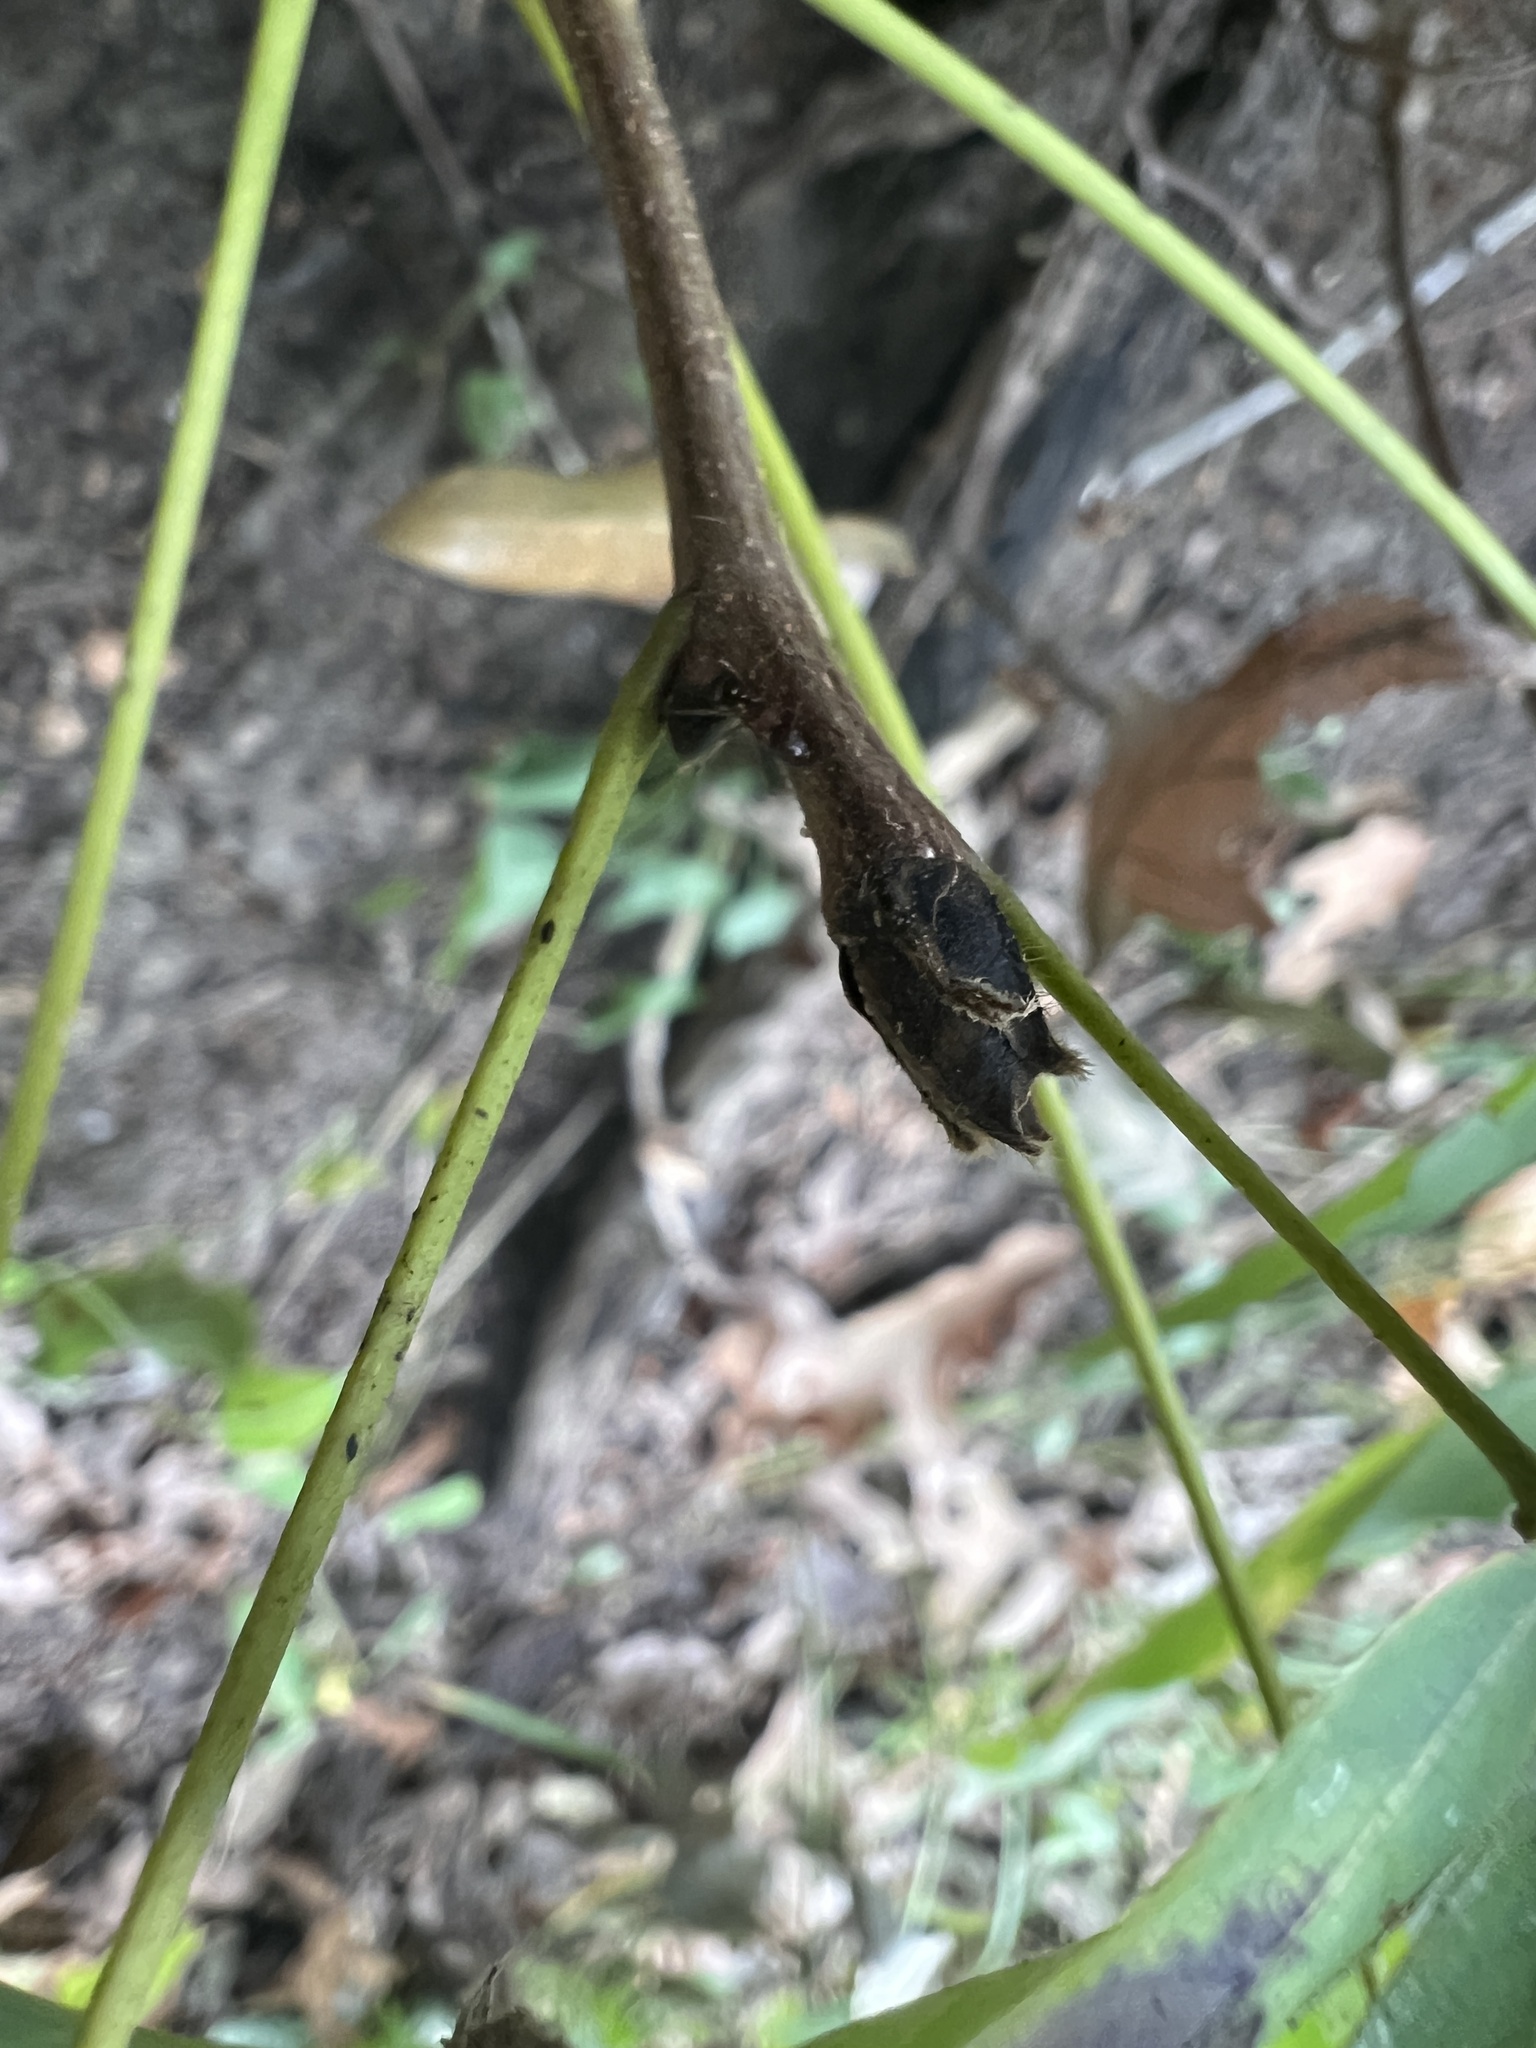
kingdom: Plantae
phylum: Tracheophyta
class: Magnoliopsida
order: Fagales
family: Juglandaceae
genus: Carya
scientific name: Carya ovata
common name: Shagbark hickory
